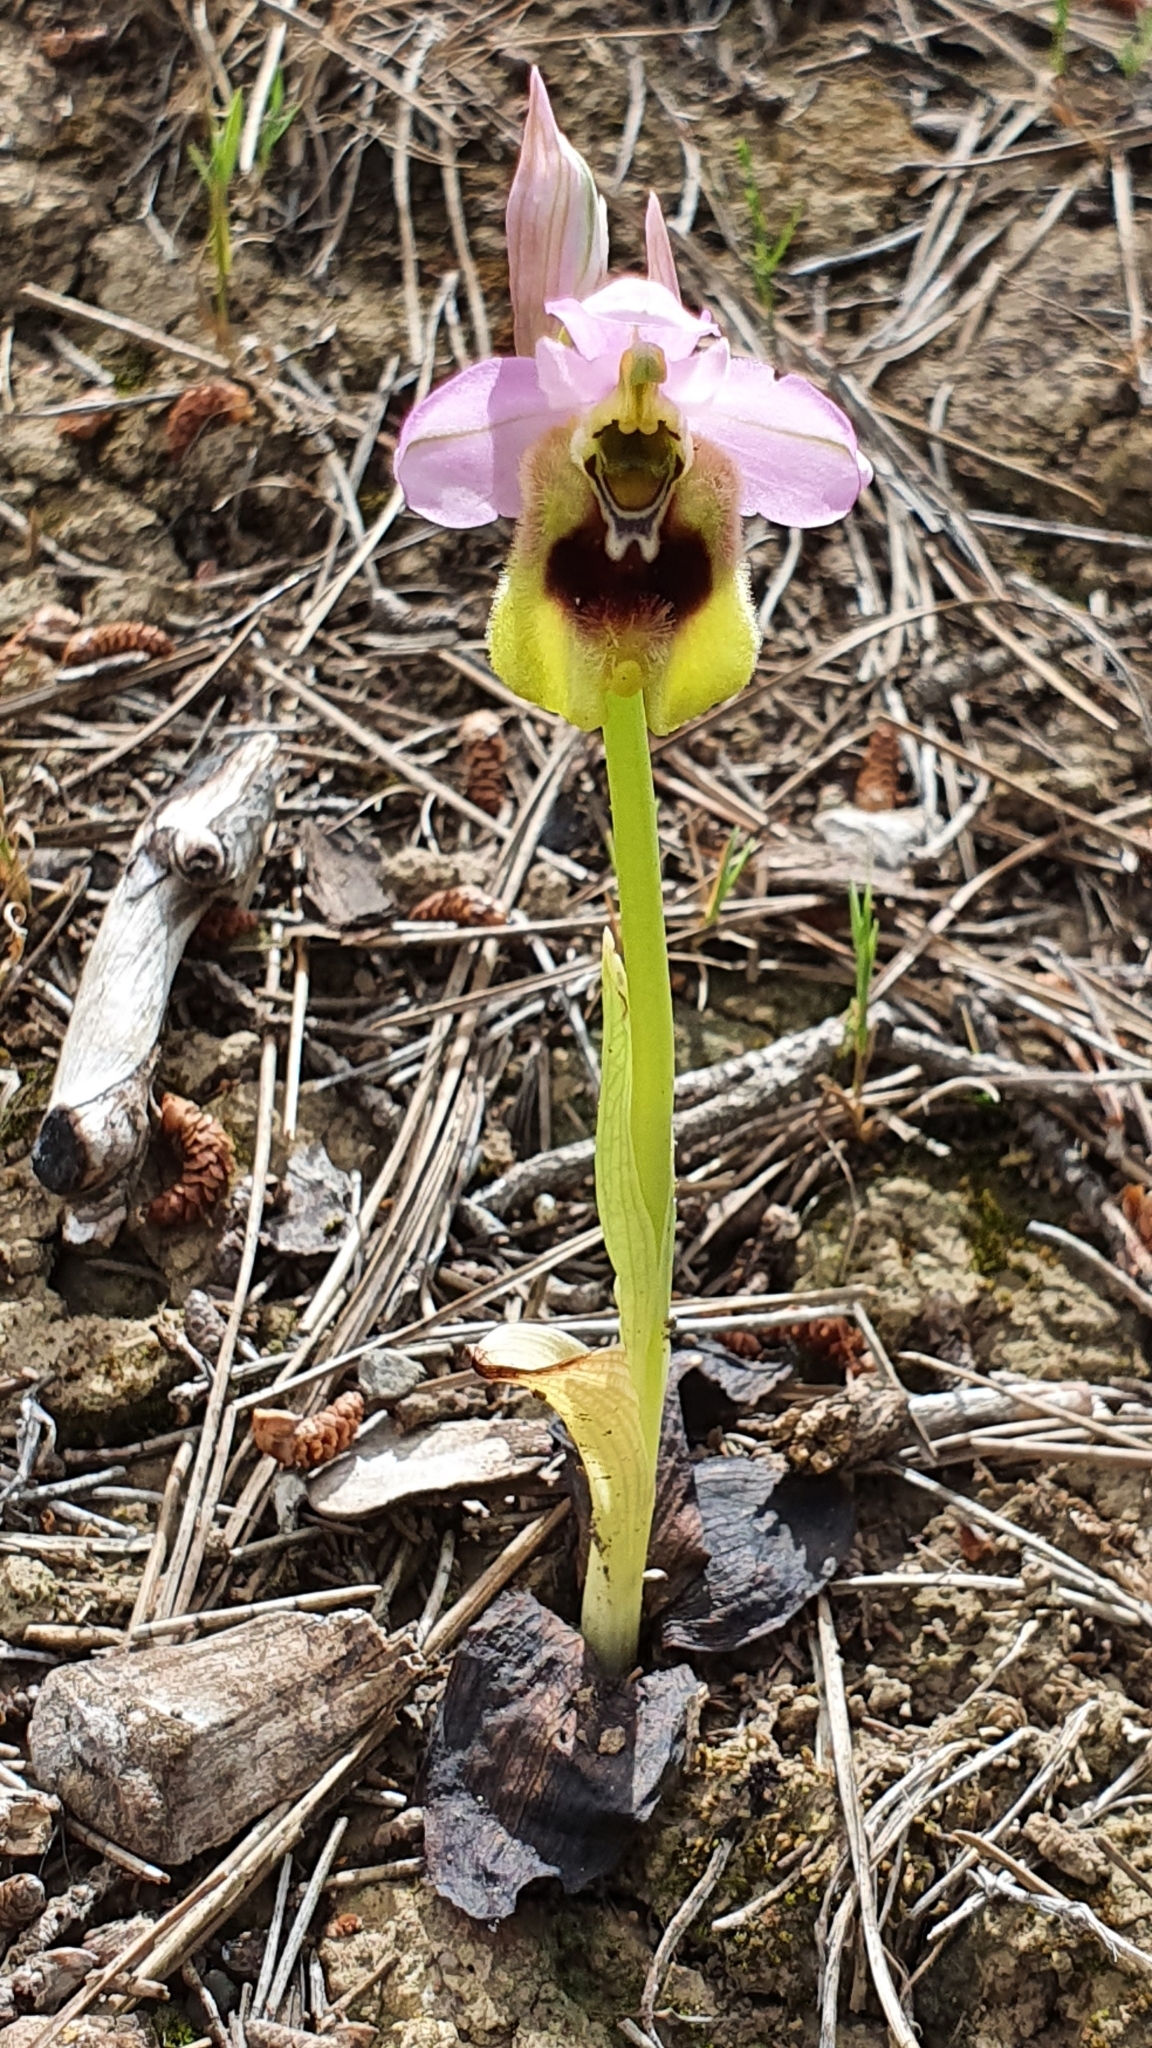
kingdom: Plantae
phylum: Tracheophyta
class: Liliopsida
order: Asparagales
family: Orchidaceae
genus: Ophrys
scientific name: Ophrys tenthredinifera
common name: Sawfly orchid
